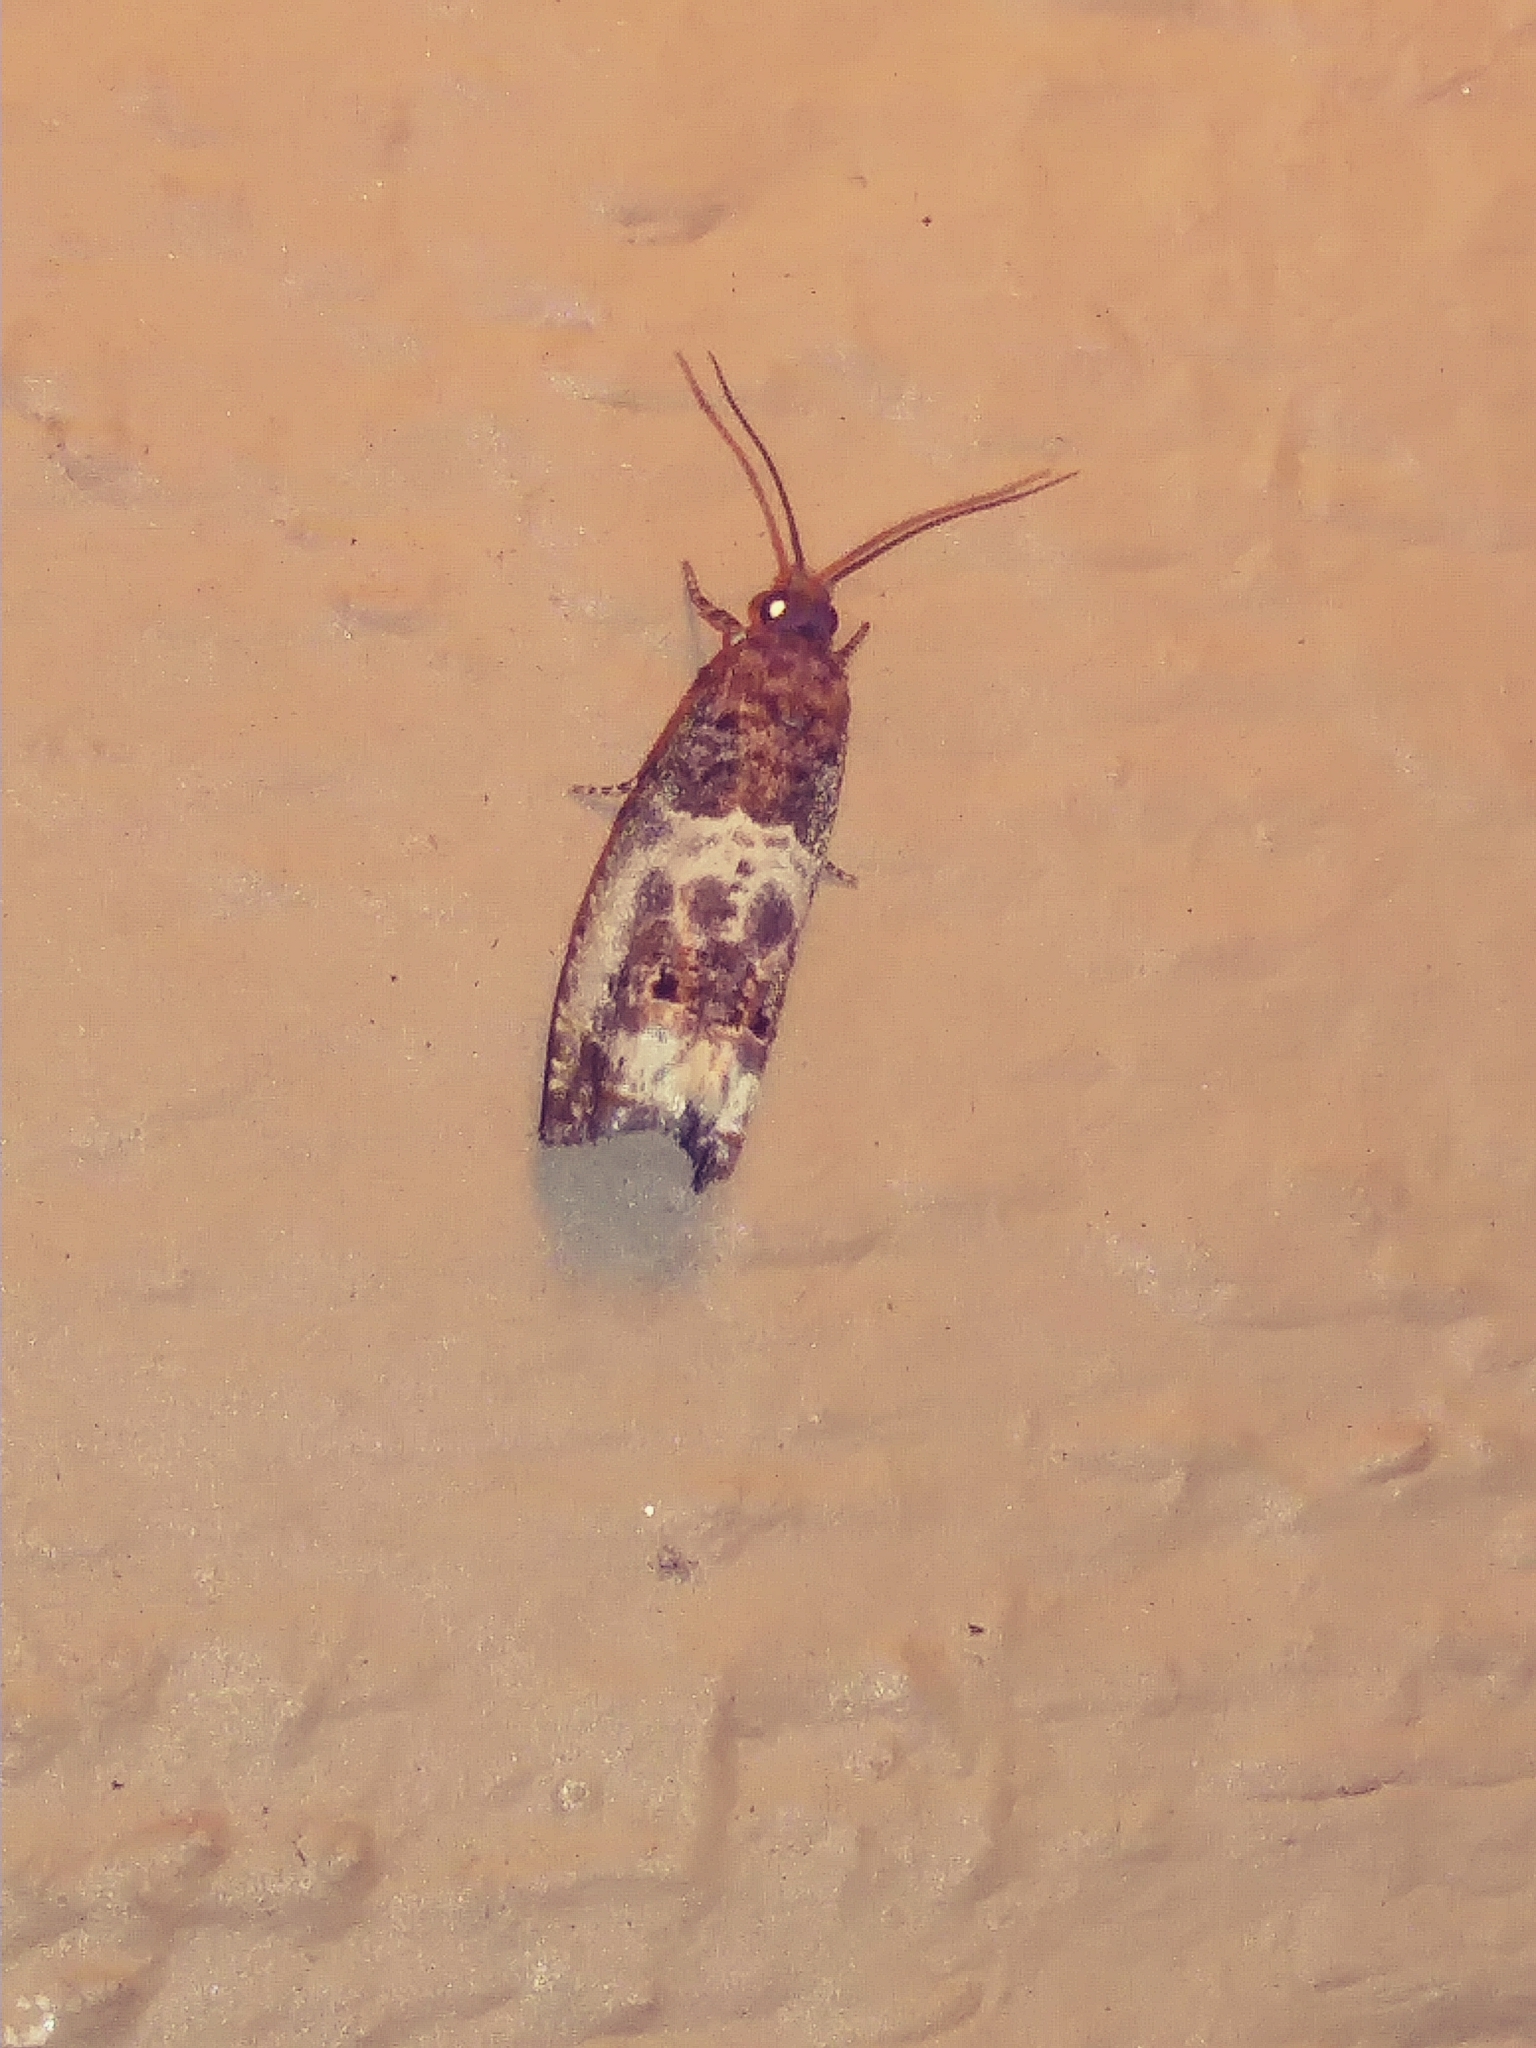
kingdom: Animalia
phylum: Arthropoda
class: Insecta
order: Lepidoptera
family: Tortricidae
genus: Notocelia
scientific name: Notocelia rosaecolana
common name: Common rose bell
